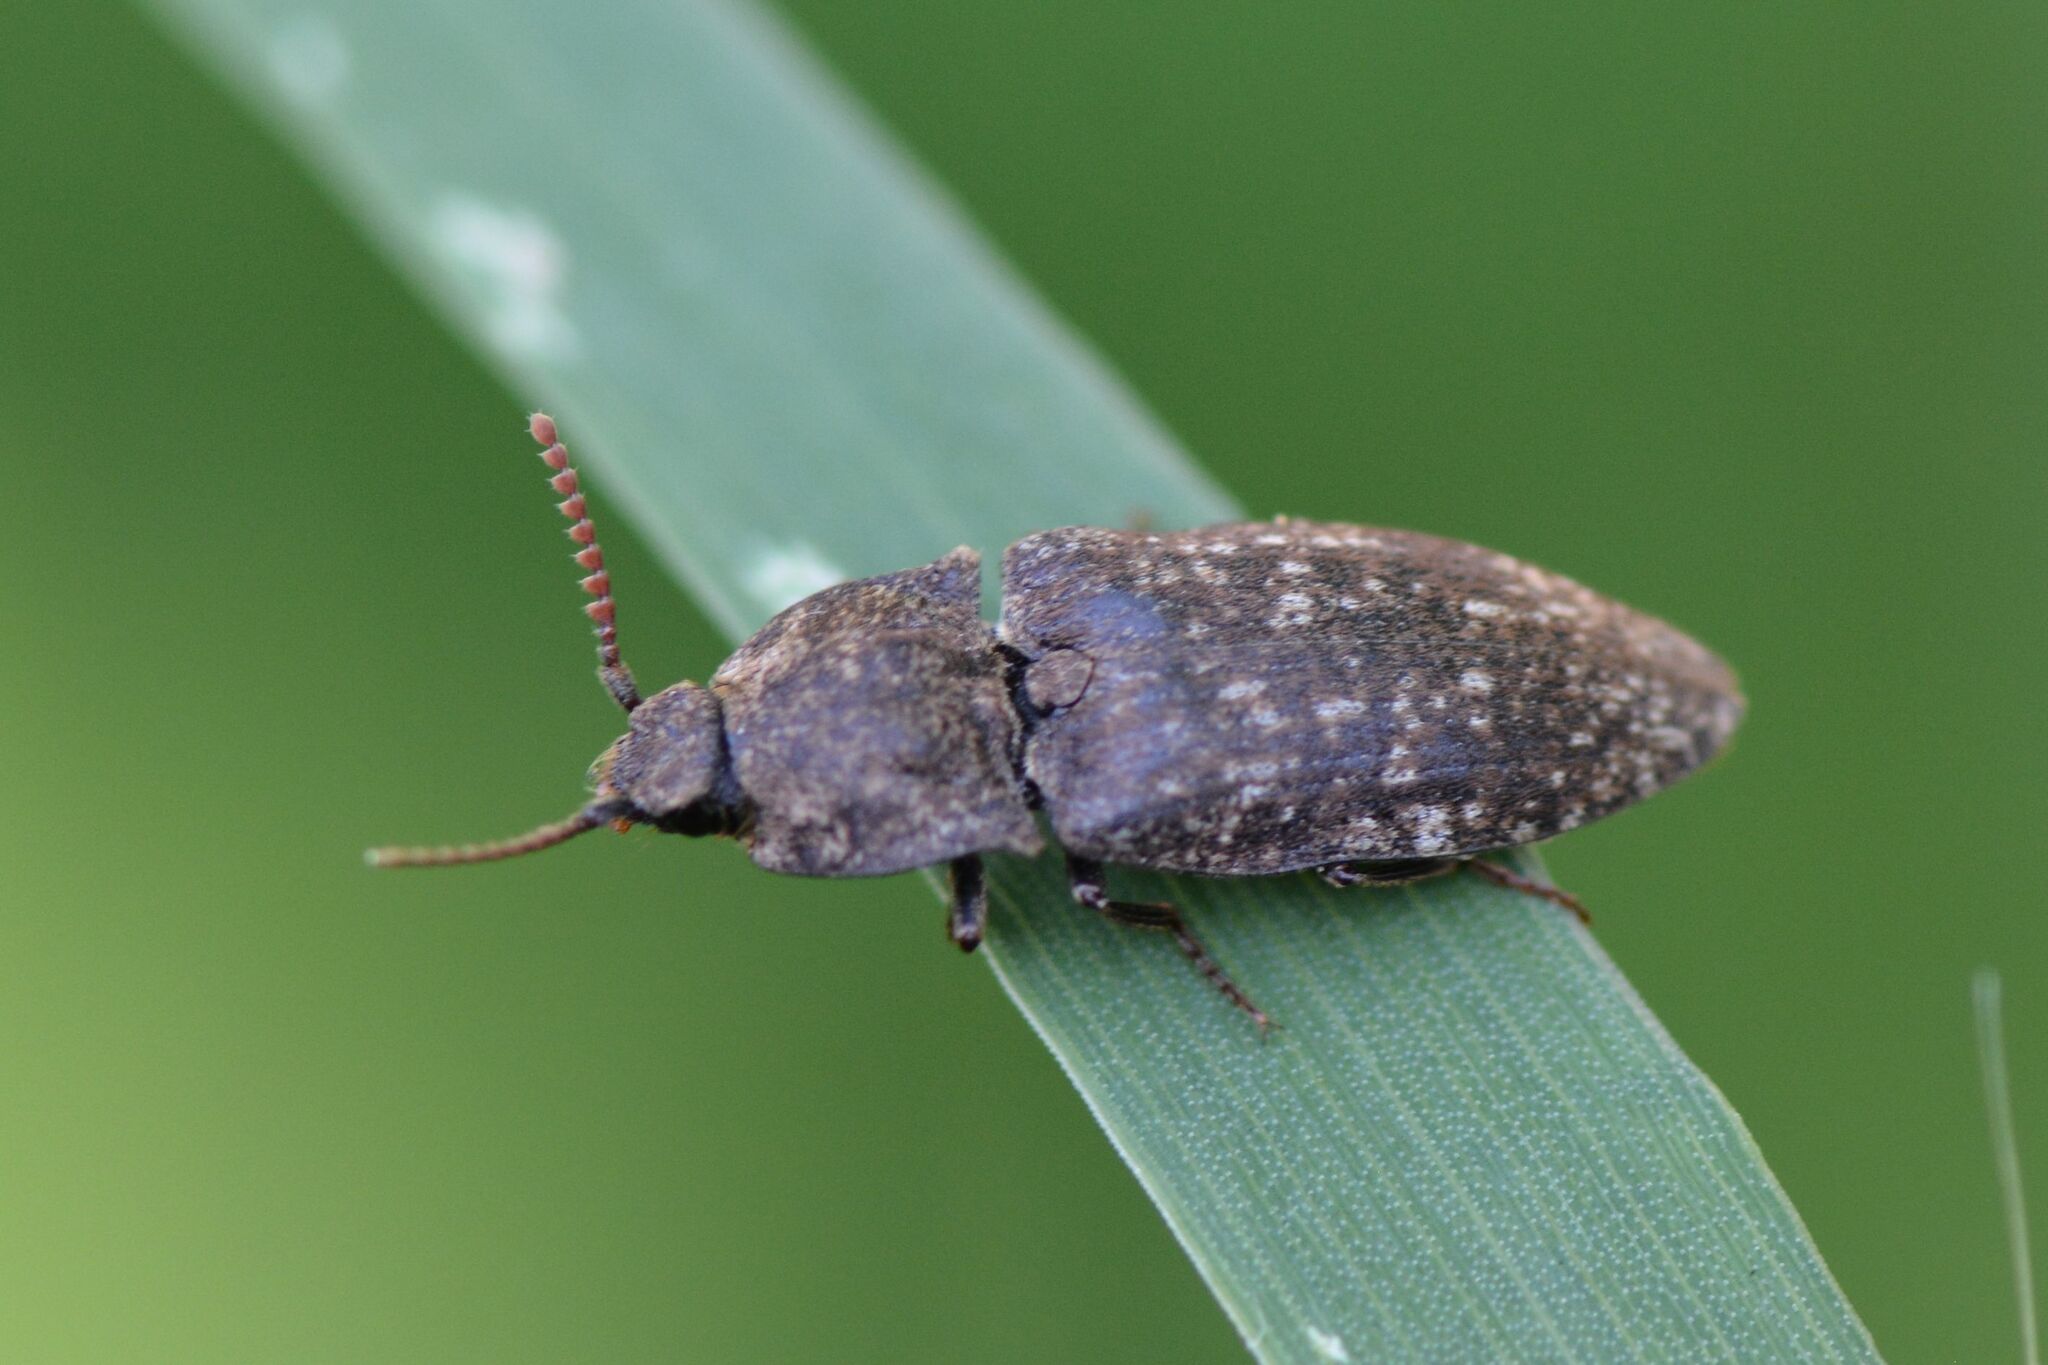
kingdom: Animalia
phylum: Arthropoda
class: Insecta
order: Coleoptera
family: Elateridae
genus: Agrypnus
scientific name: Agrypnus murinus
